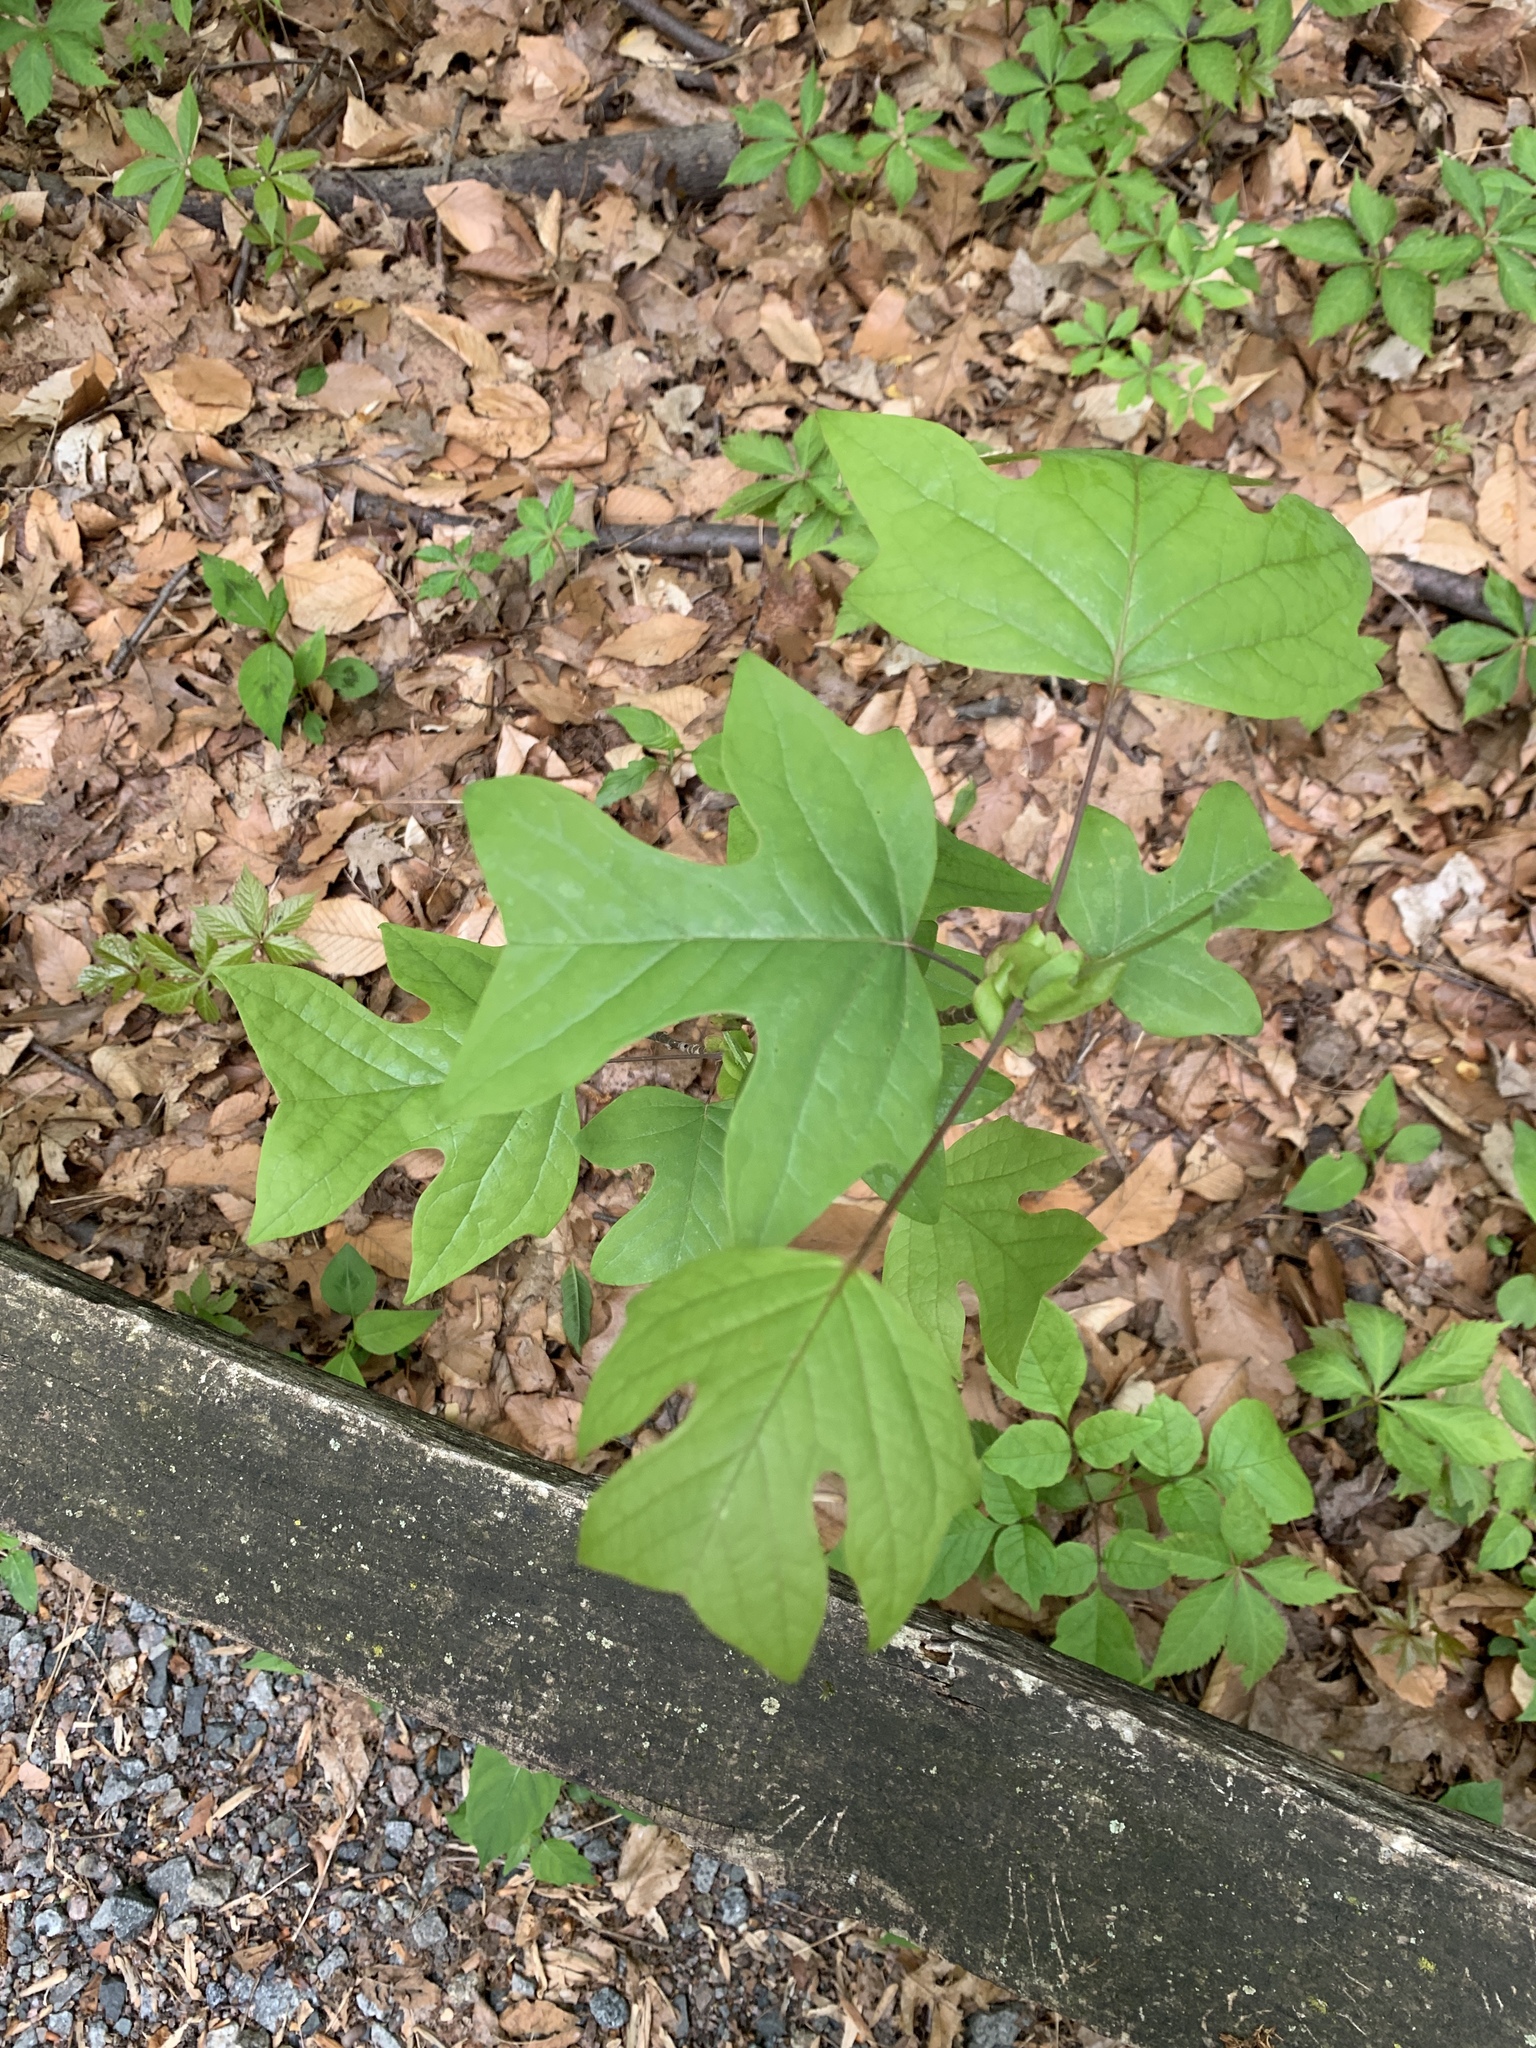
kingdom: Plantae
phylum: Tracheophyta
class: Magnoliopsida
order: Magnoliales
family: Magnoliaceae
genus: Liriodendron
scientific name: Liriodendron tulipifera
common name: Tulip tree
